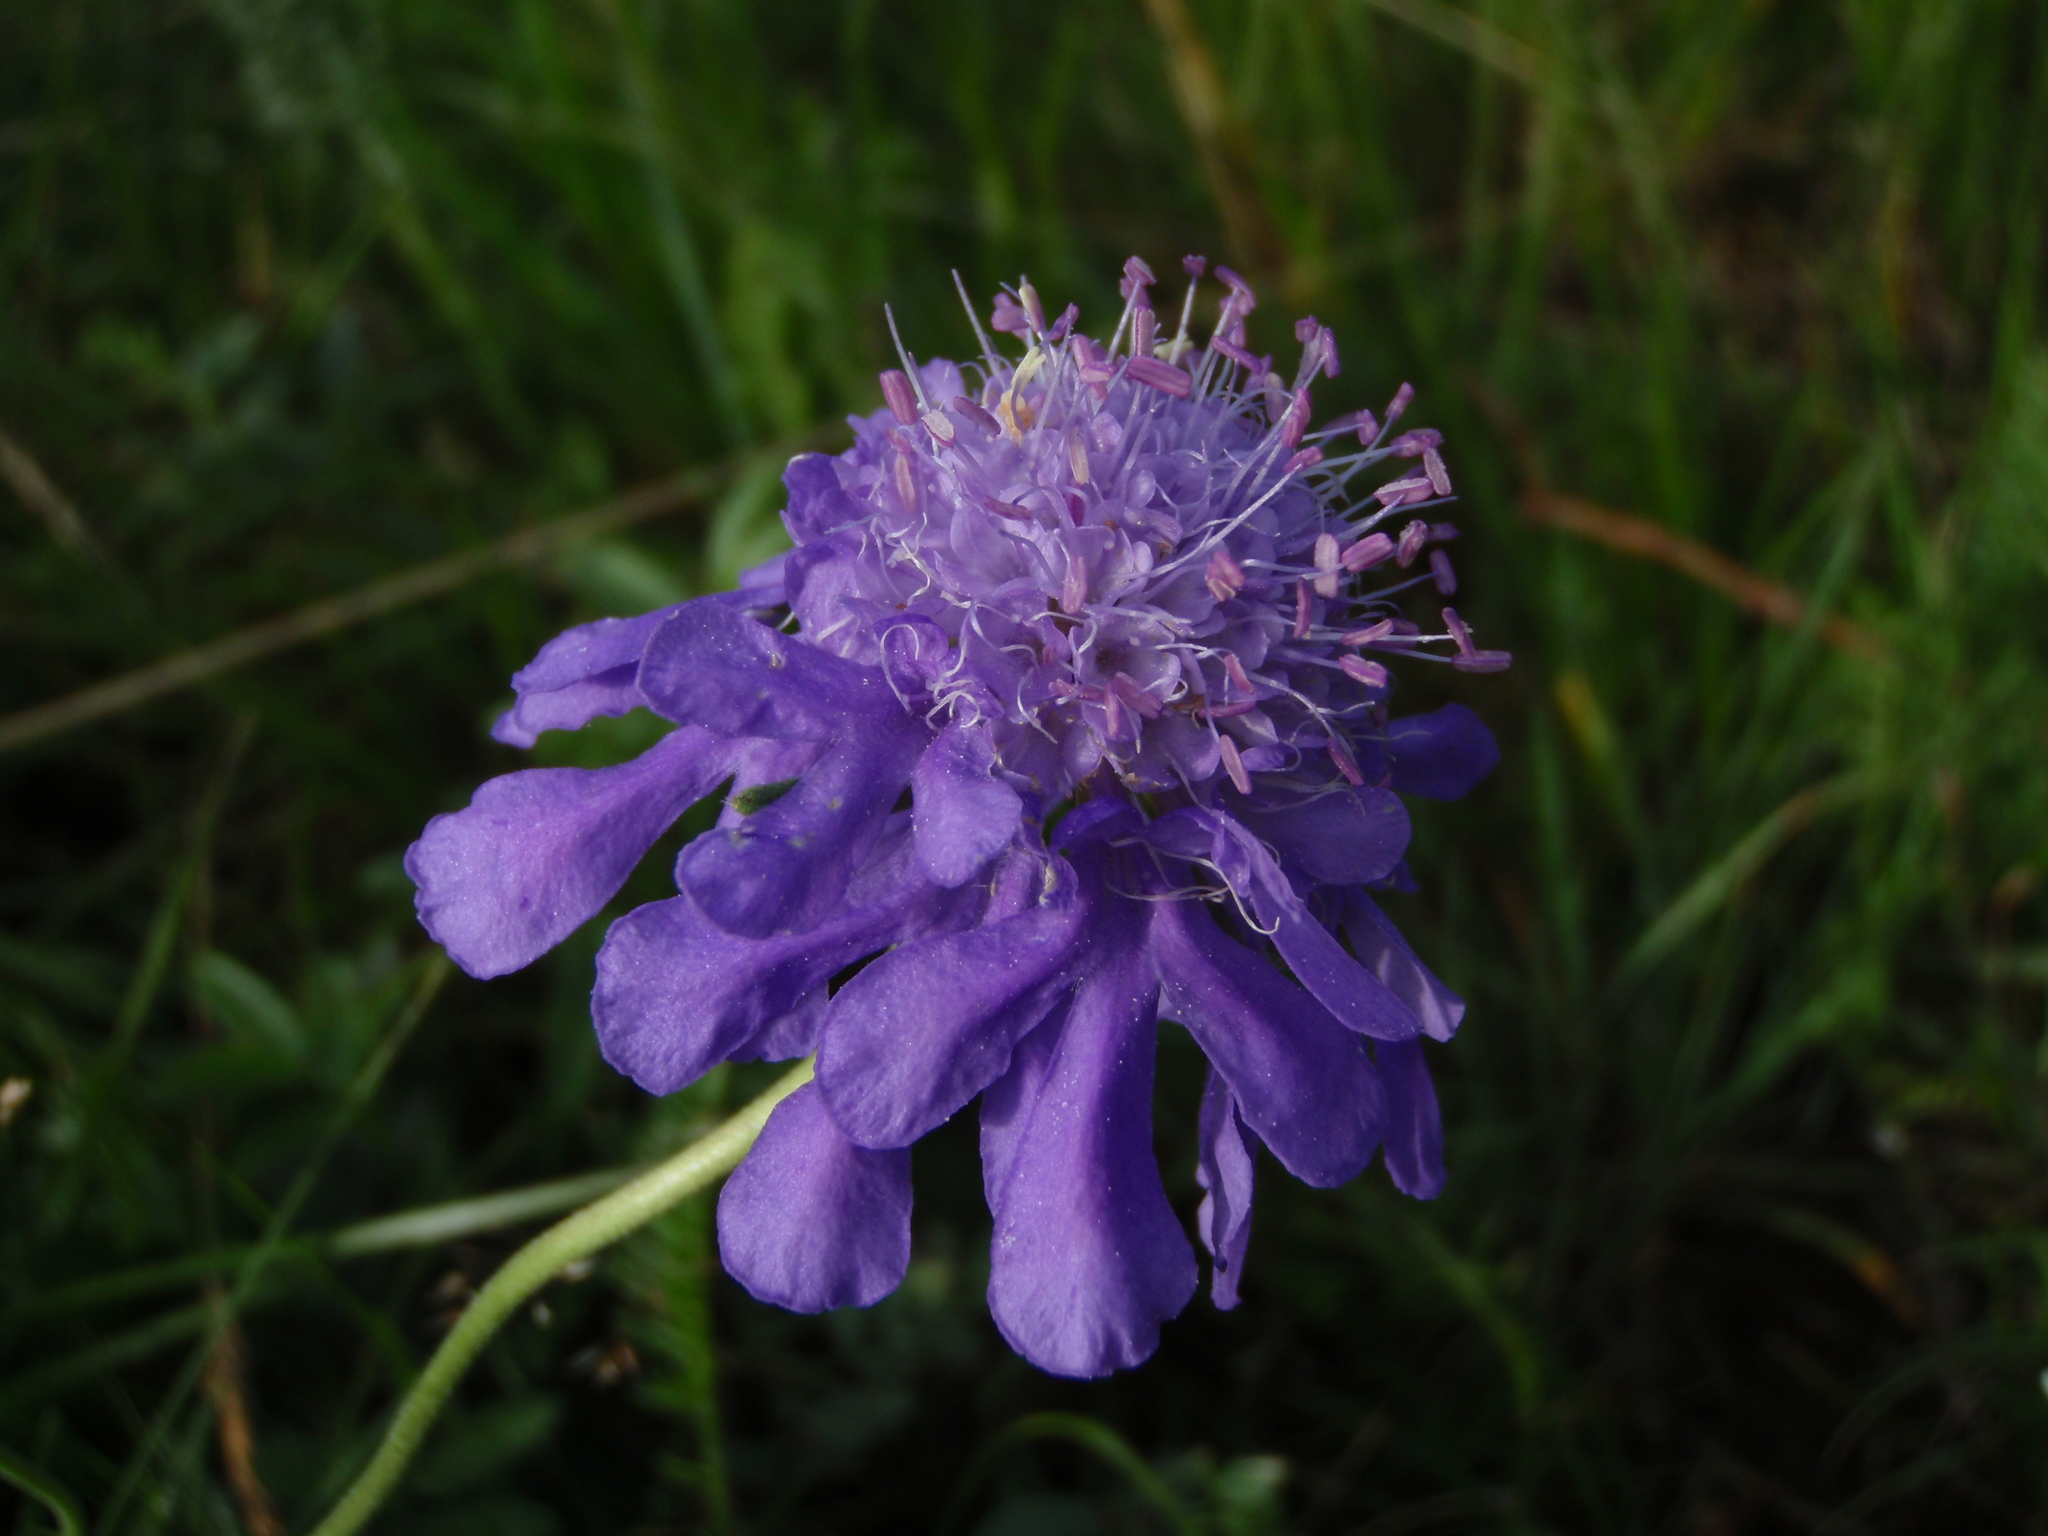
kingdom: Plantae
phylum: Tracheophyta
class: Magnoliopsida
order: Dipsacales
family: Caprifoliaceae
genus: Scabiosa
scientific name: Scabiosa comosa
